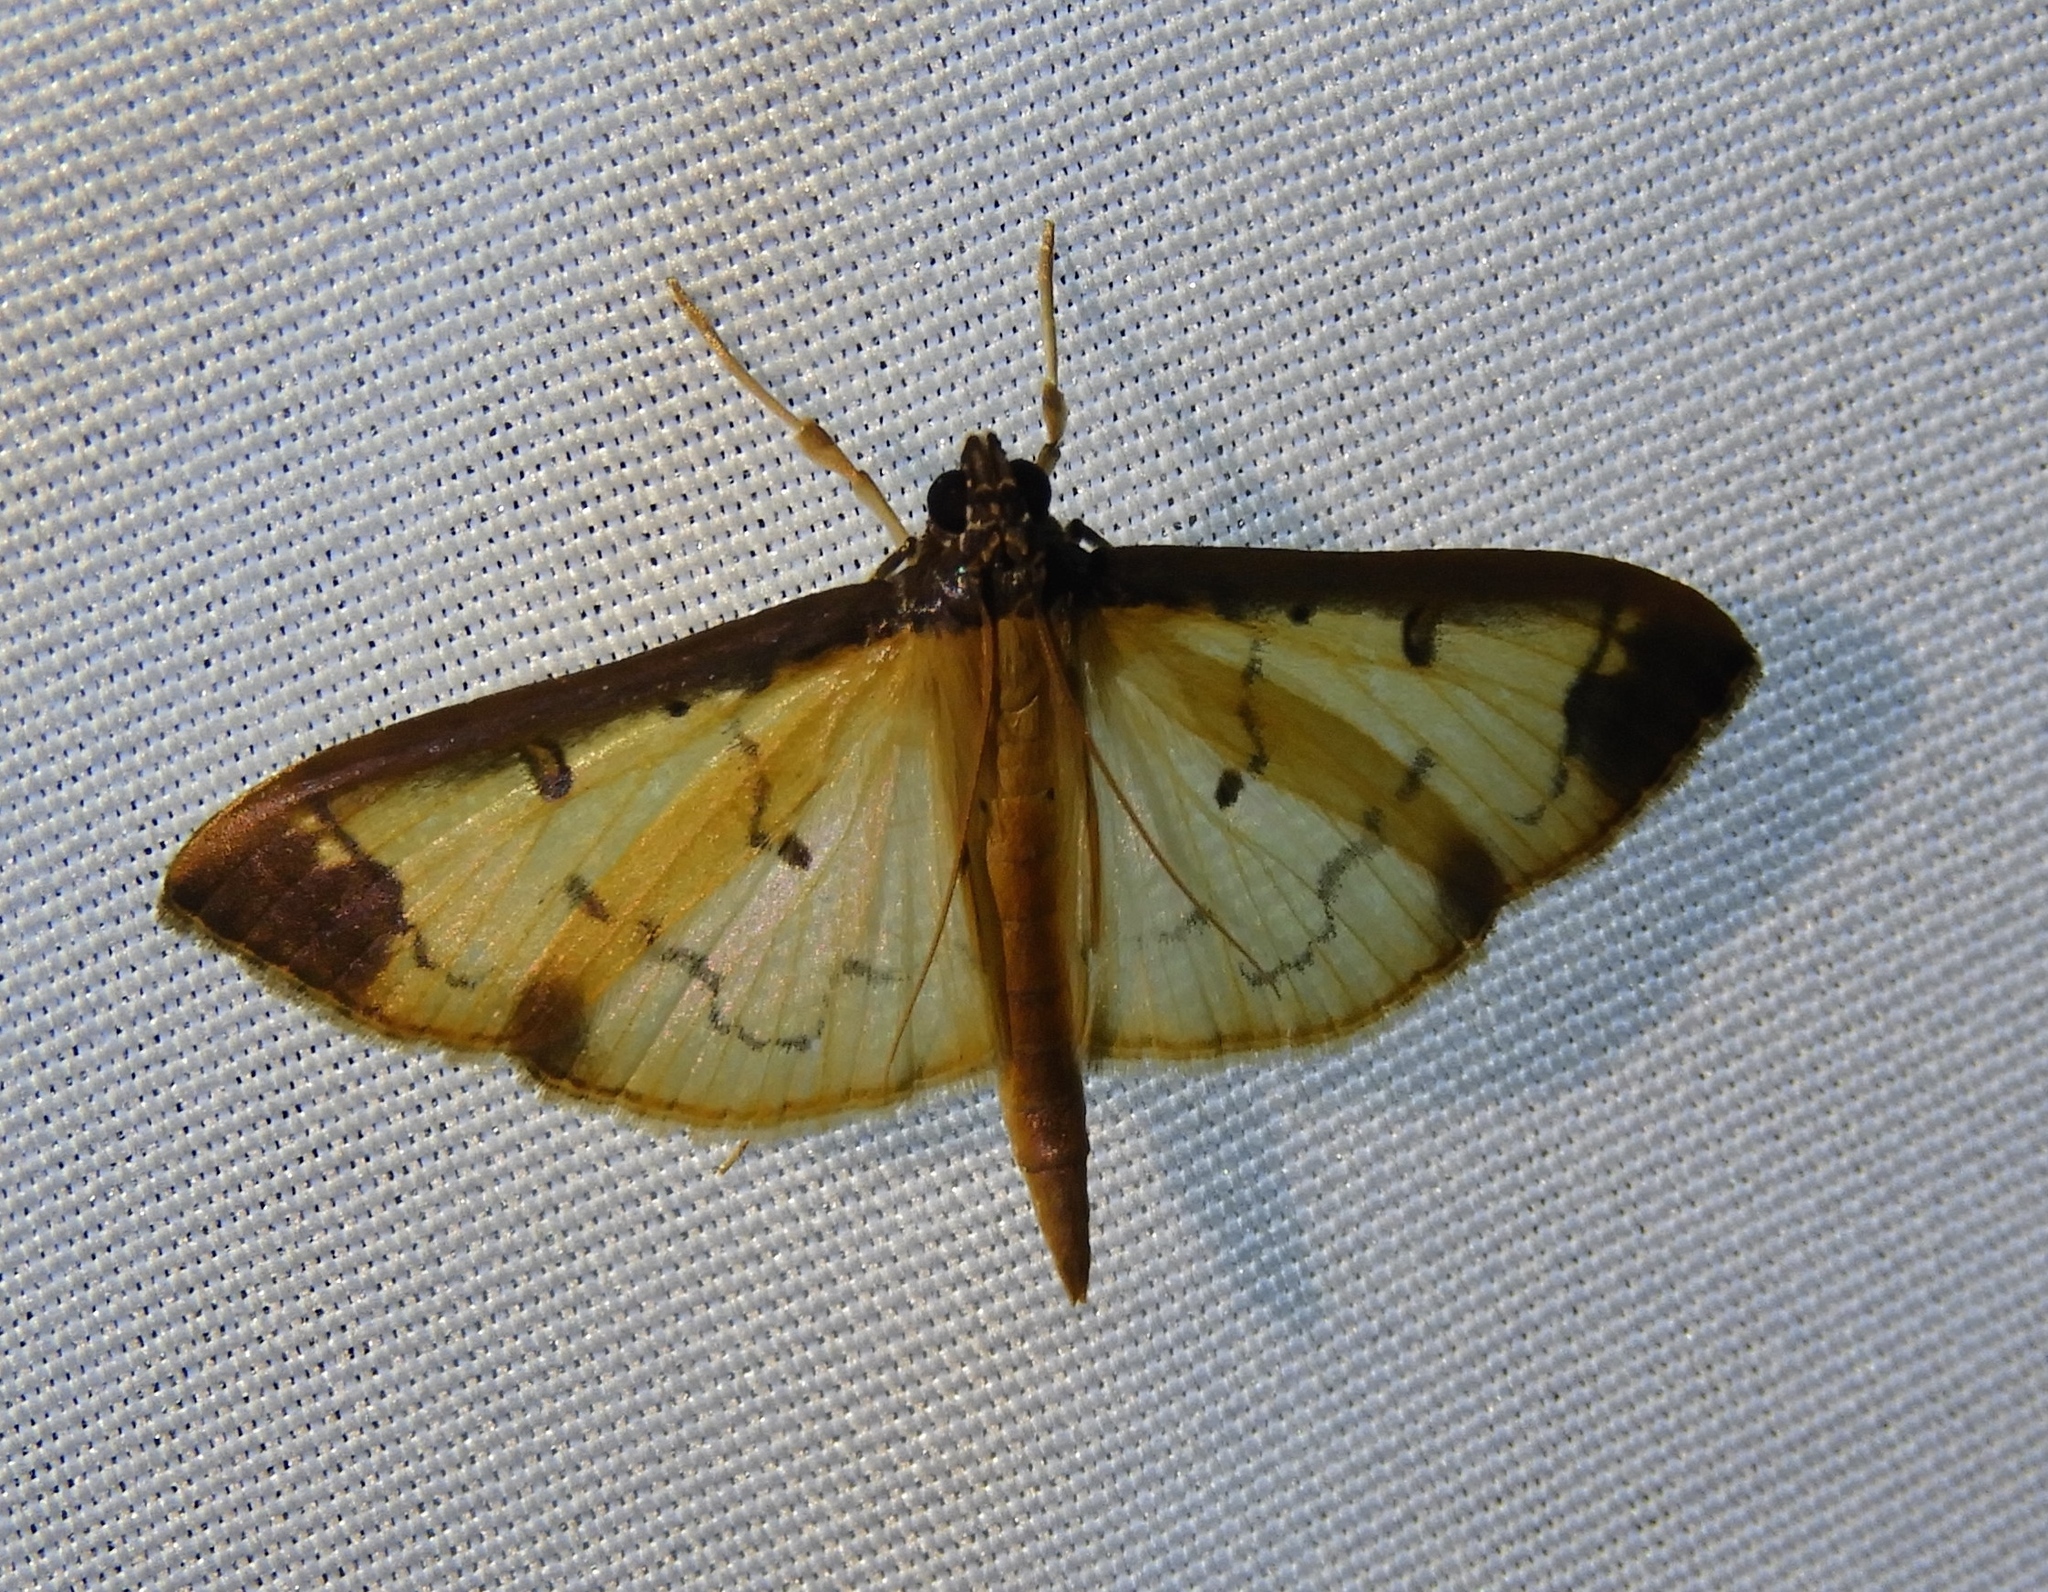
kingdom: Animalia
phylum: Arthropoda
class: Insecta
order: Lepidoptera
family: Crambidae
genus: Eulepte
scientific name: Eulepte gastralis
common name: Leaf skeletonizing crambid moth
